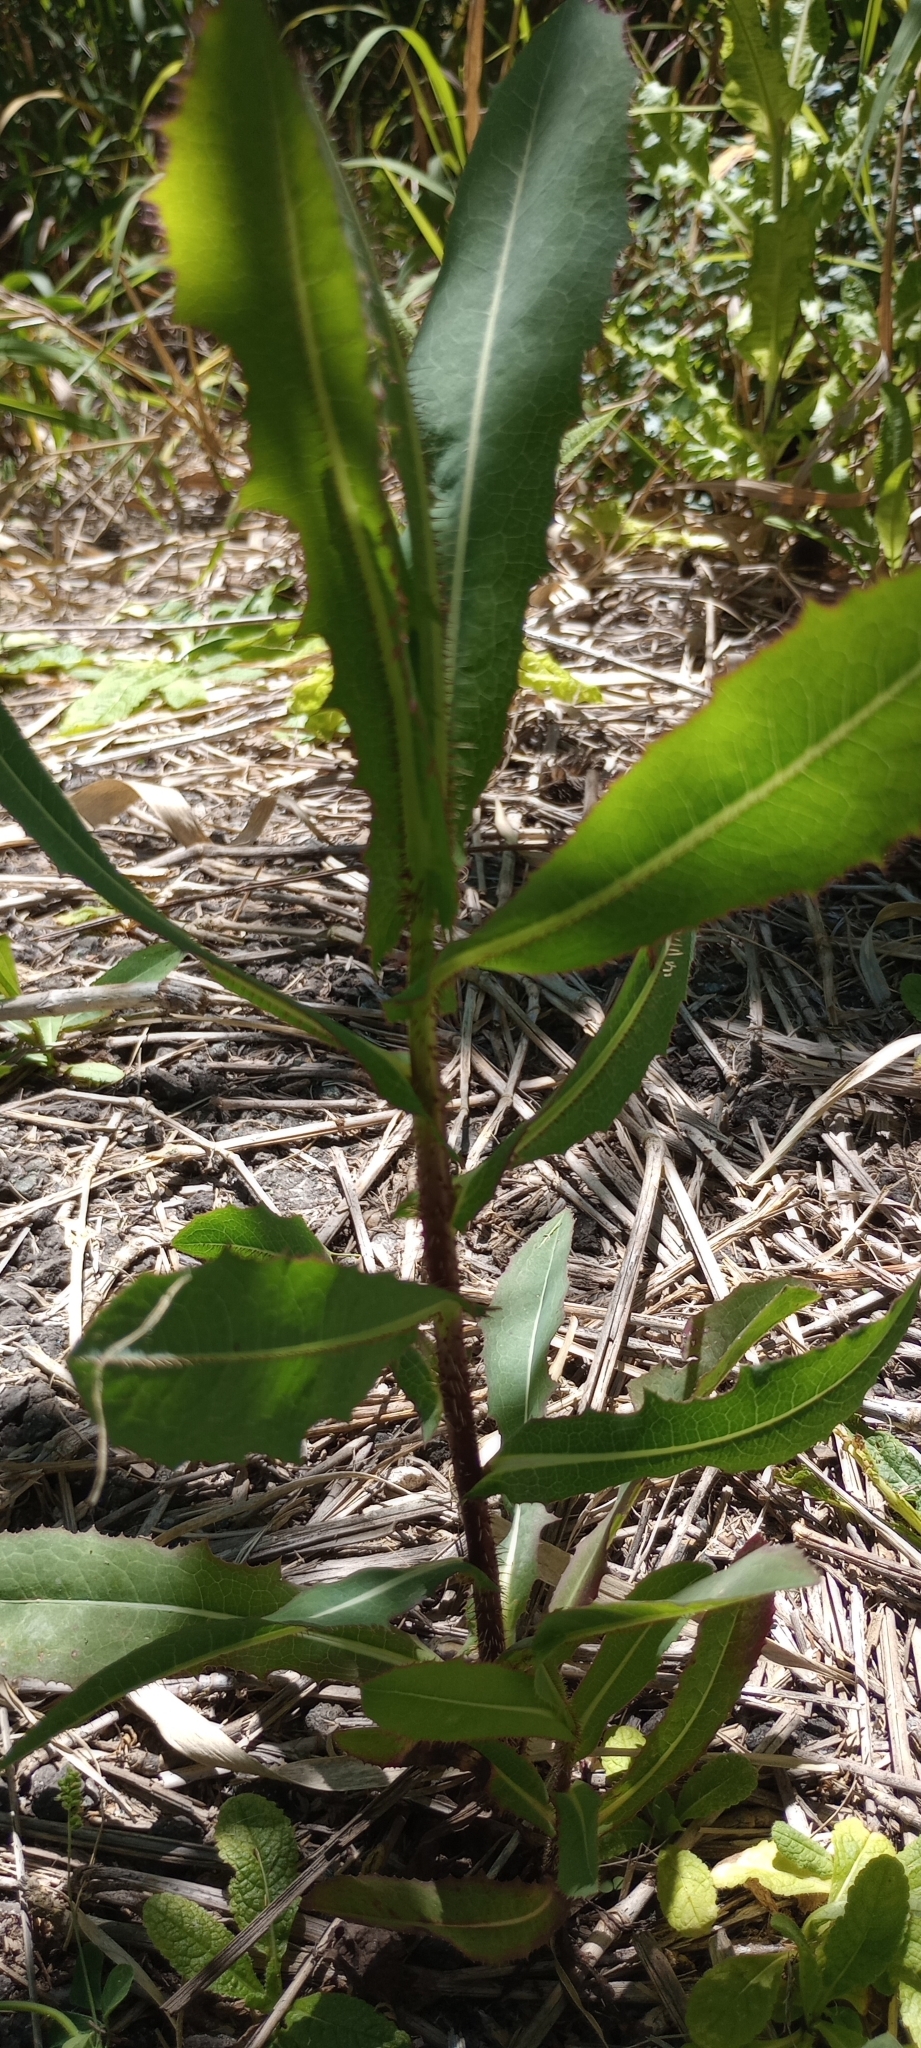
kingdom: Plantae
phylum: Tracheophyta
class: Magnoliopsida
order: Asterales
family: Asteraceae
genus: Lactuca
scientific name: Lactuca serriola
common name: Prickly lettuce
